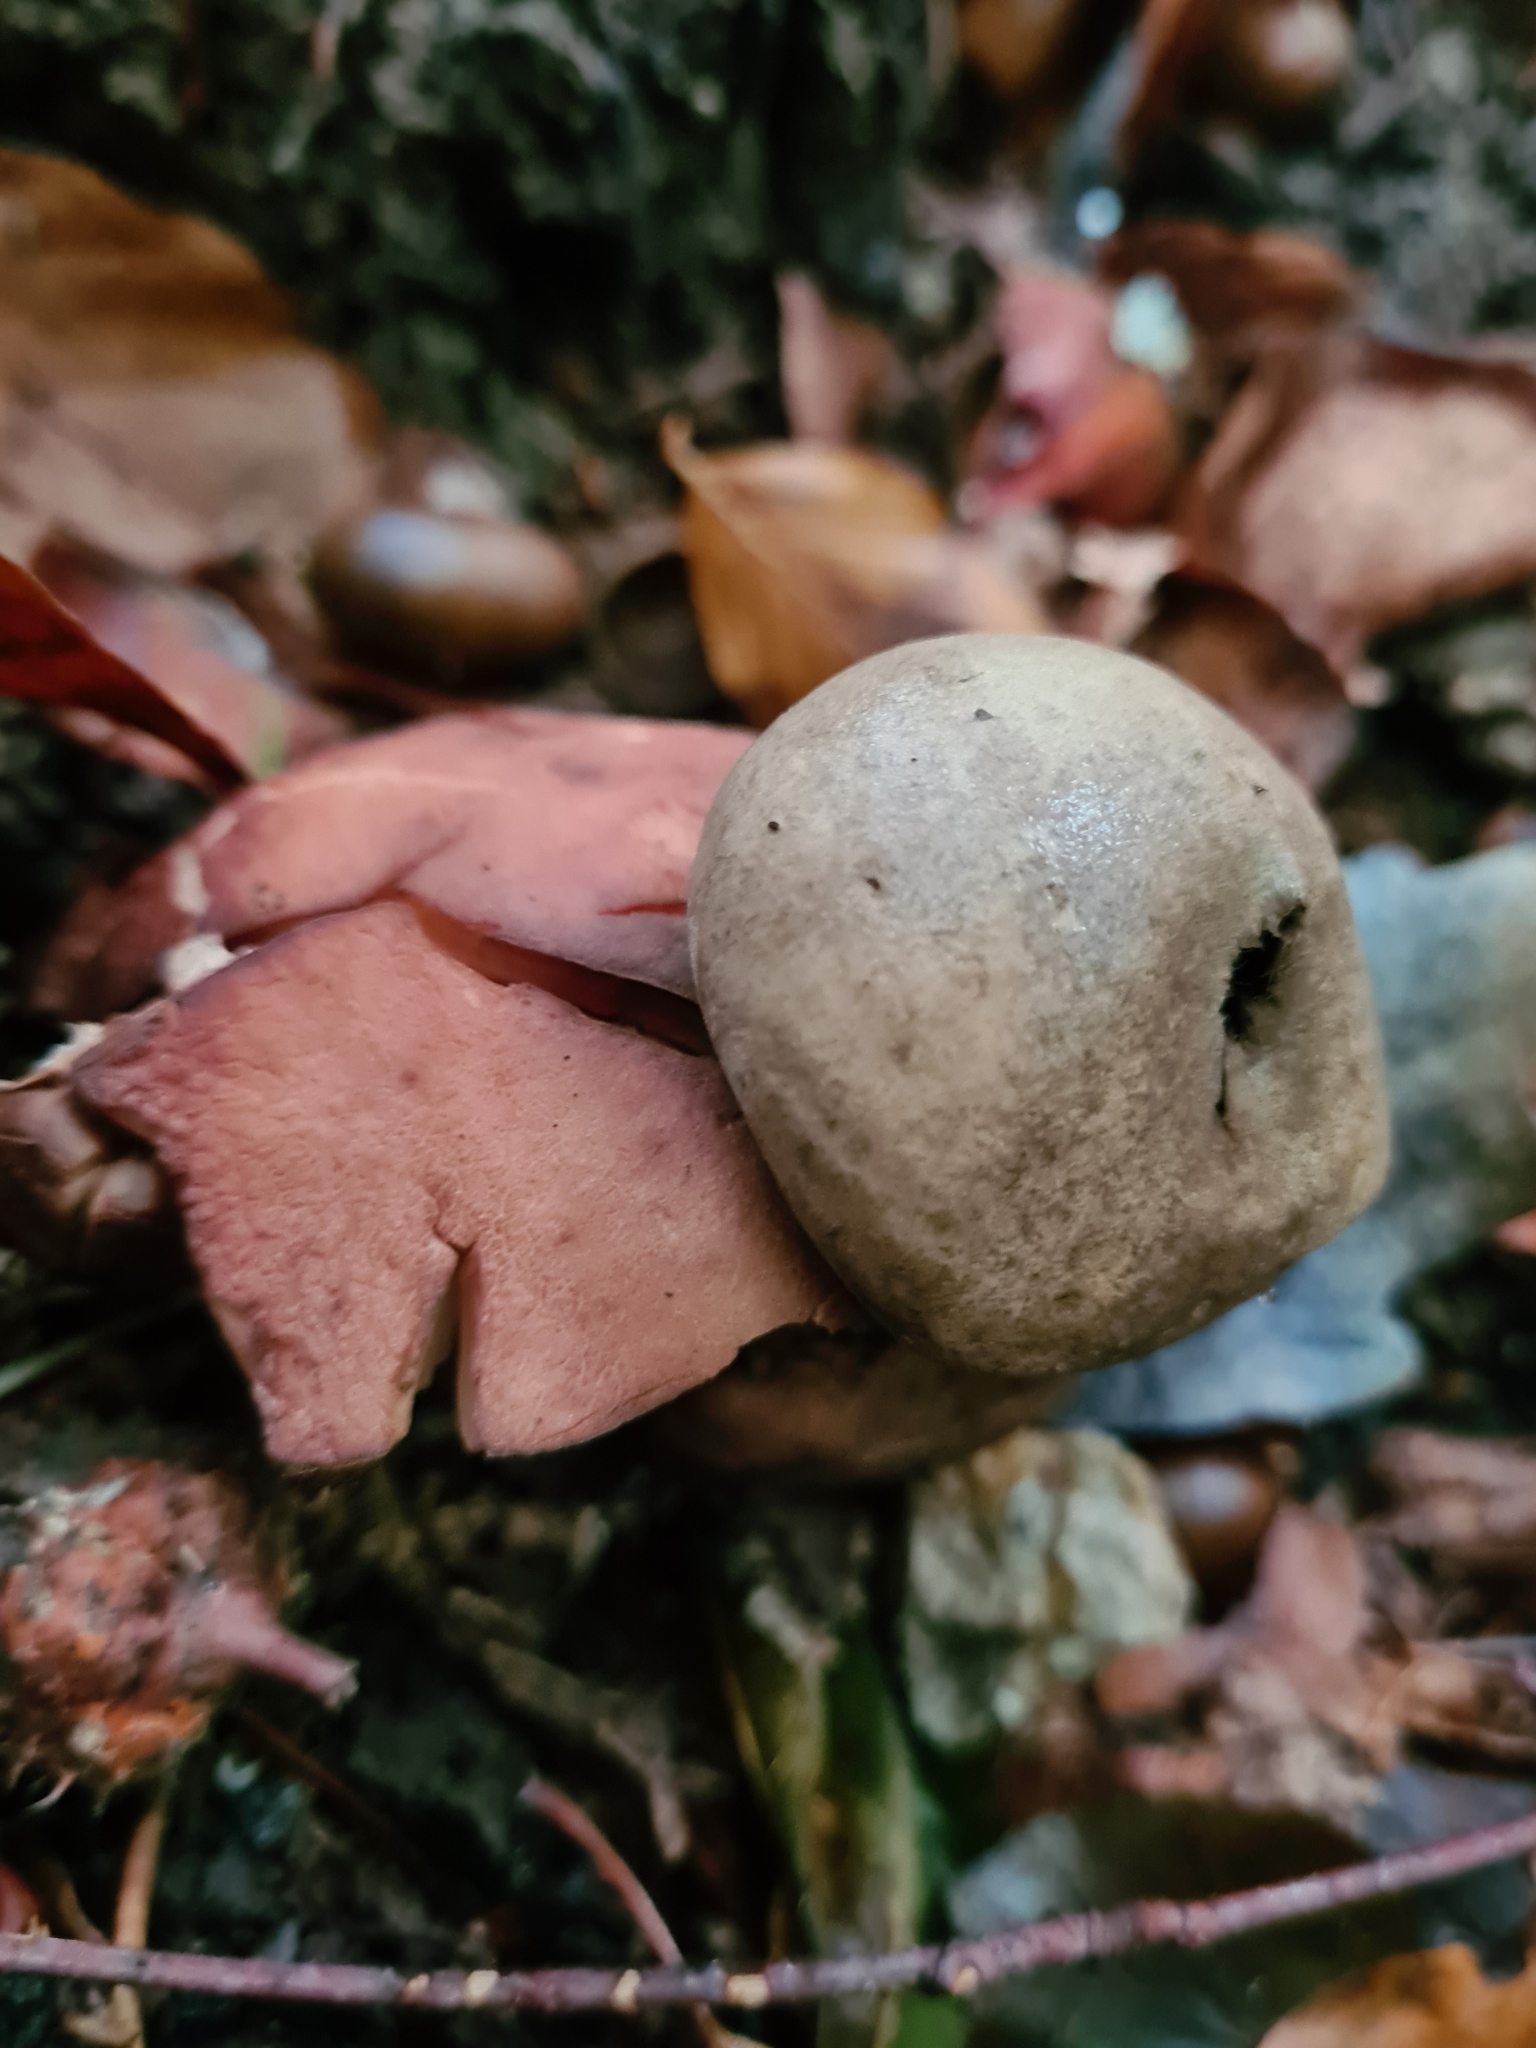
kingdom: Fungi
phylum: Basidiomycota
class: Agaricomycetes
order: Geastrales
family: Geastraceae
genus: Geastrum
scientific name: Geastrum rufescens
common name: Rosy earthstar
